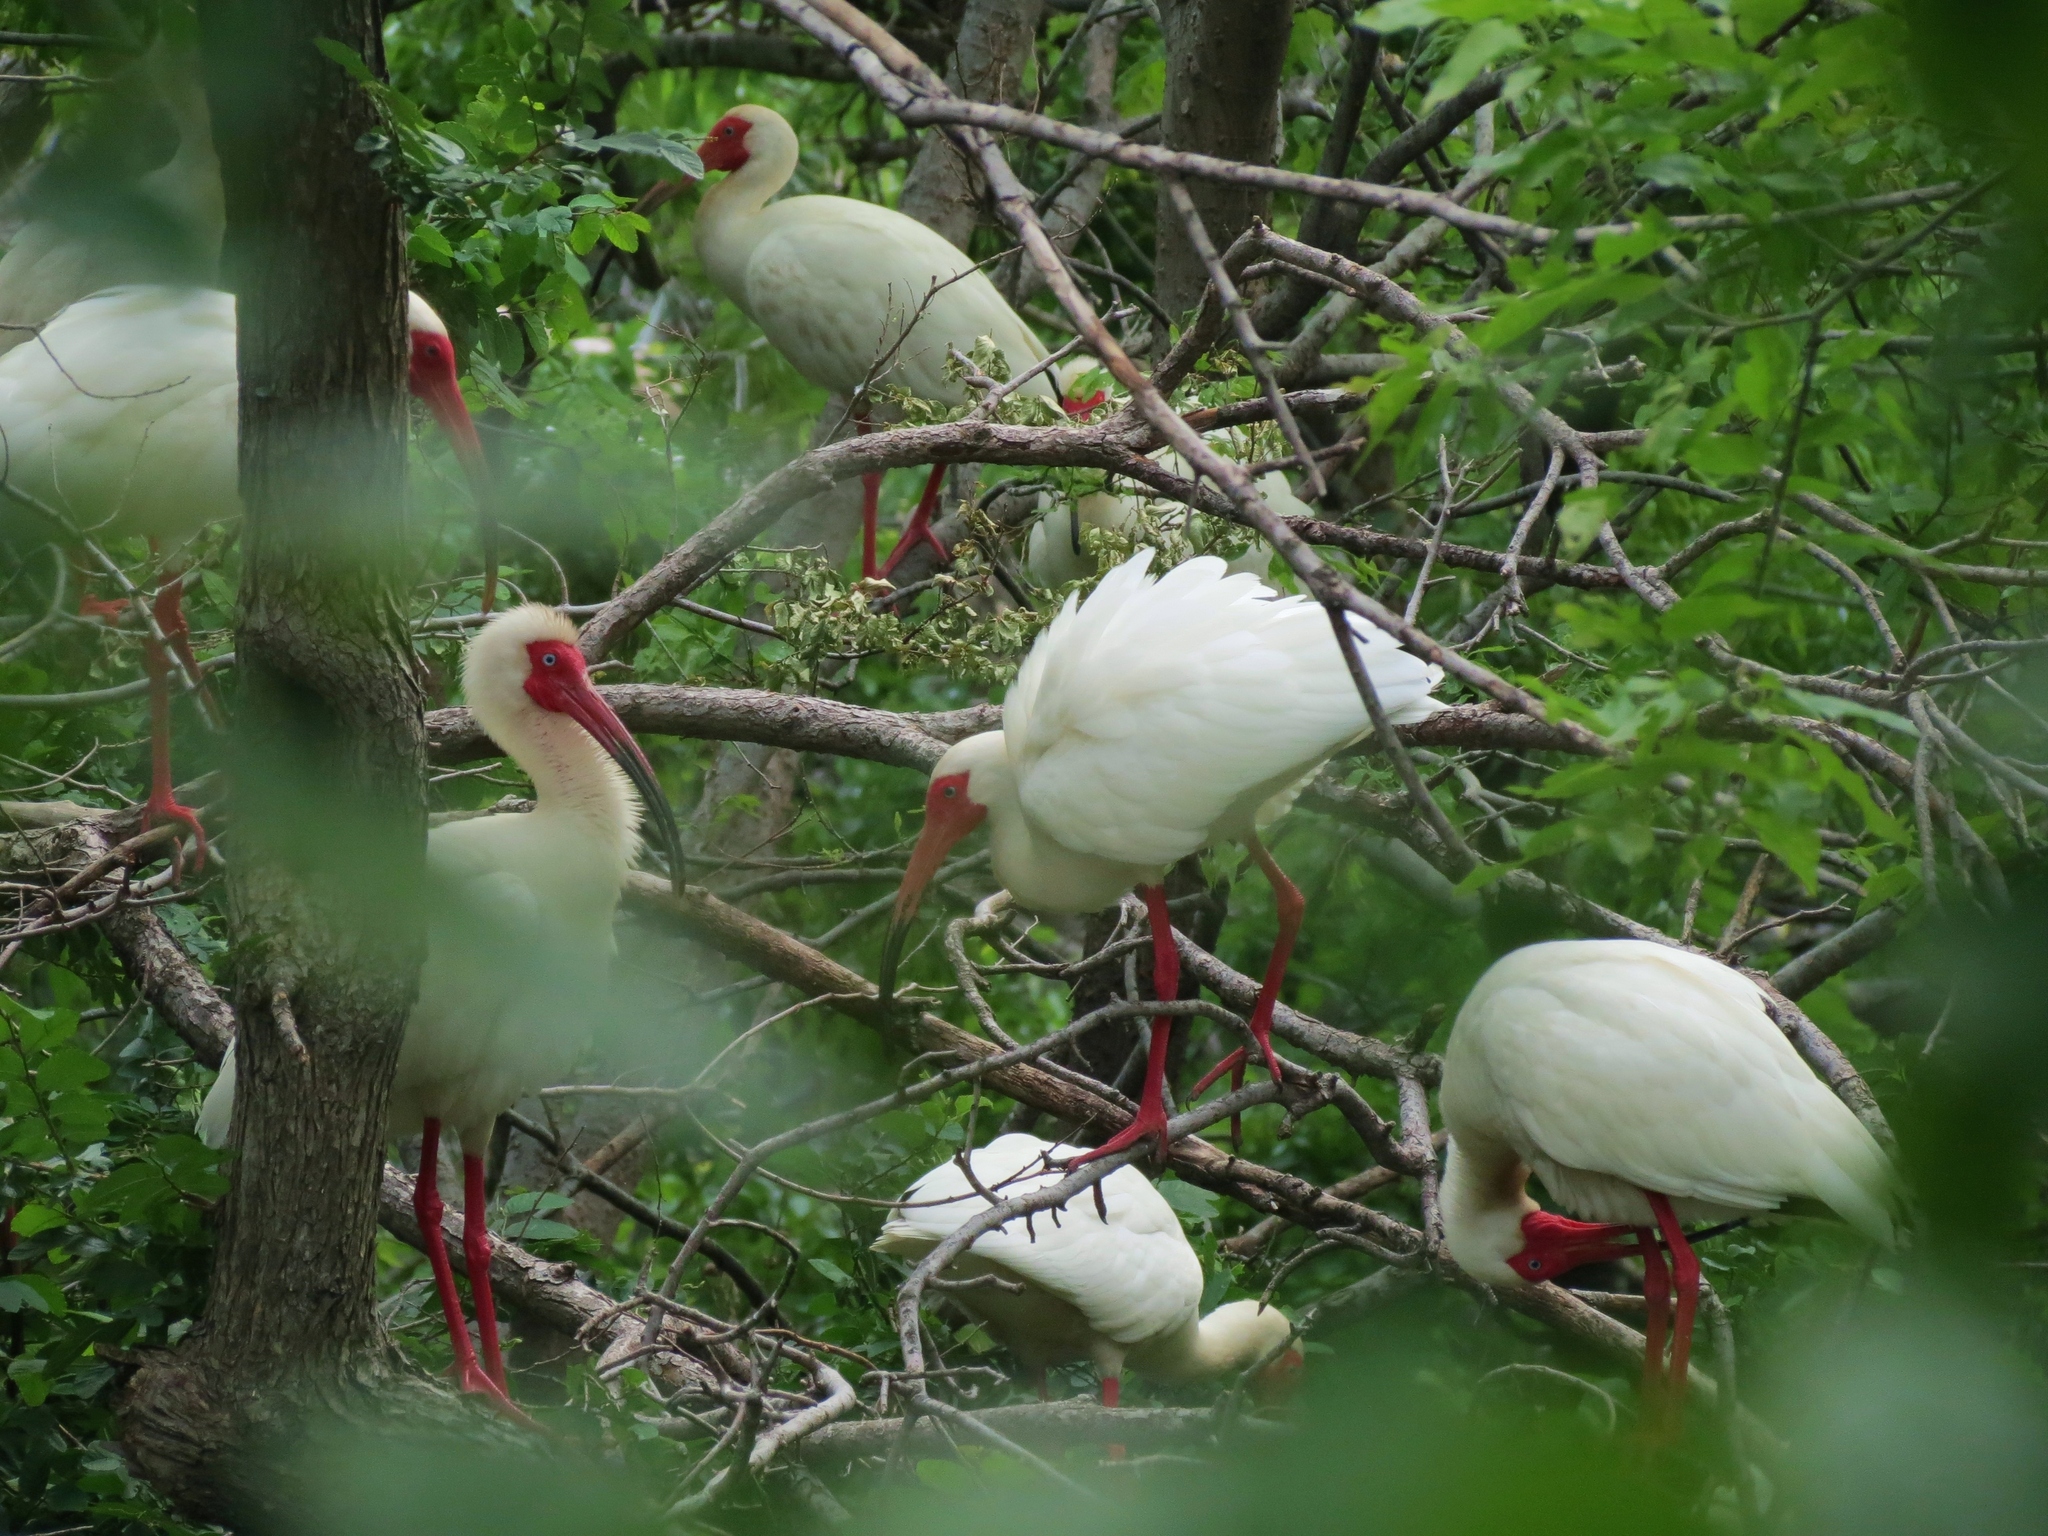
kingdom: Animalia
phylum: Chordata
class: Aves
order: Pelecaniformes
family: Threskiornithidae
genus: Eudocimus
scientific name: Eudocimus albus
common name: White ibis
